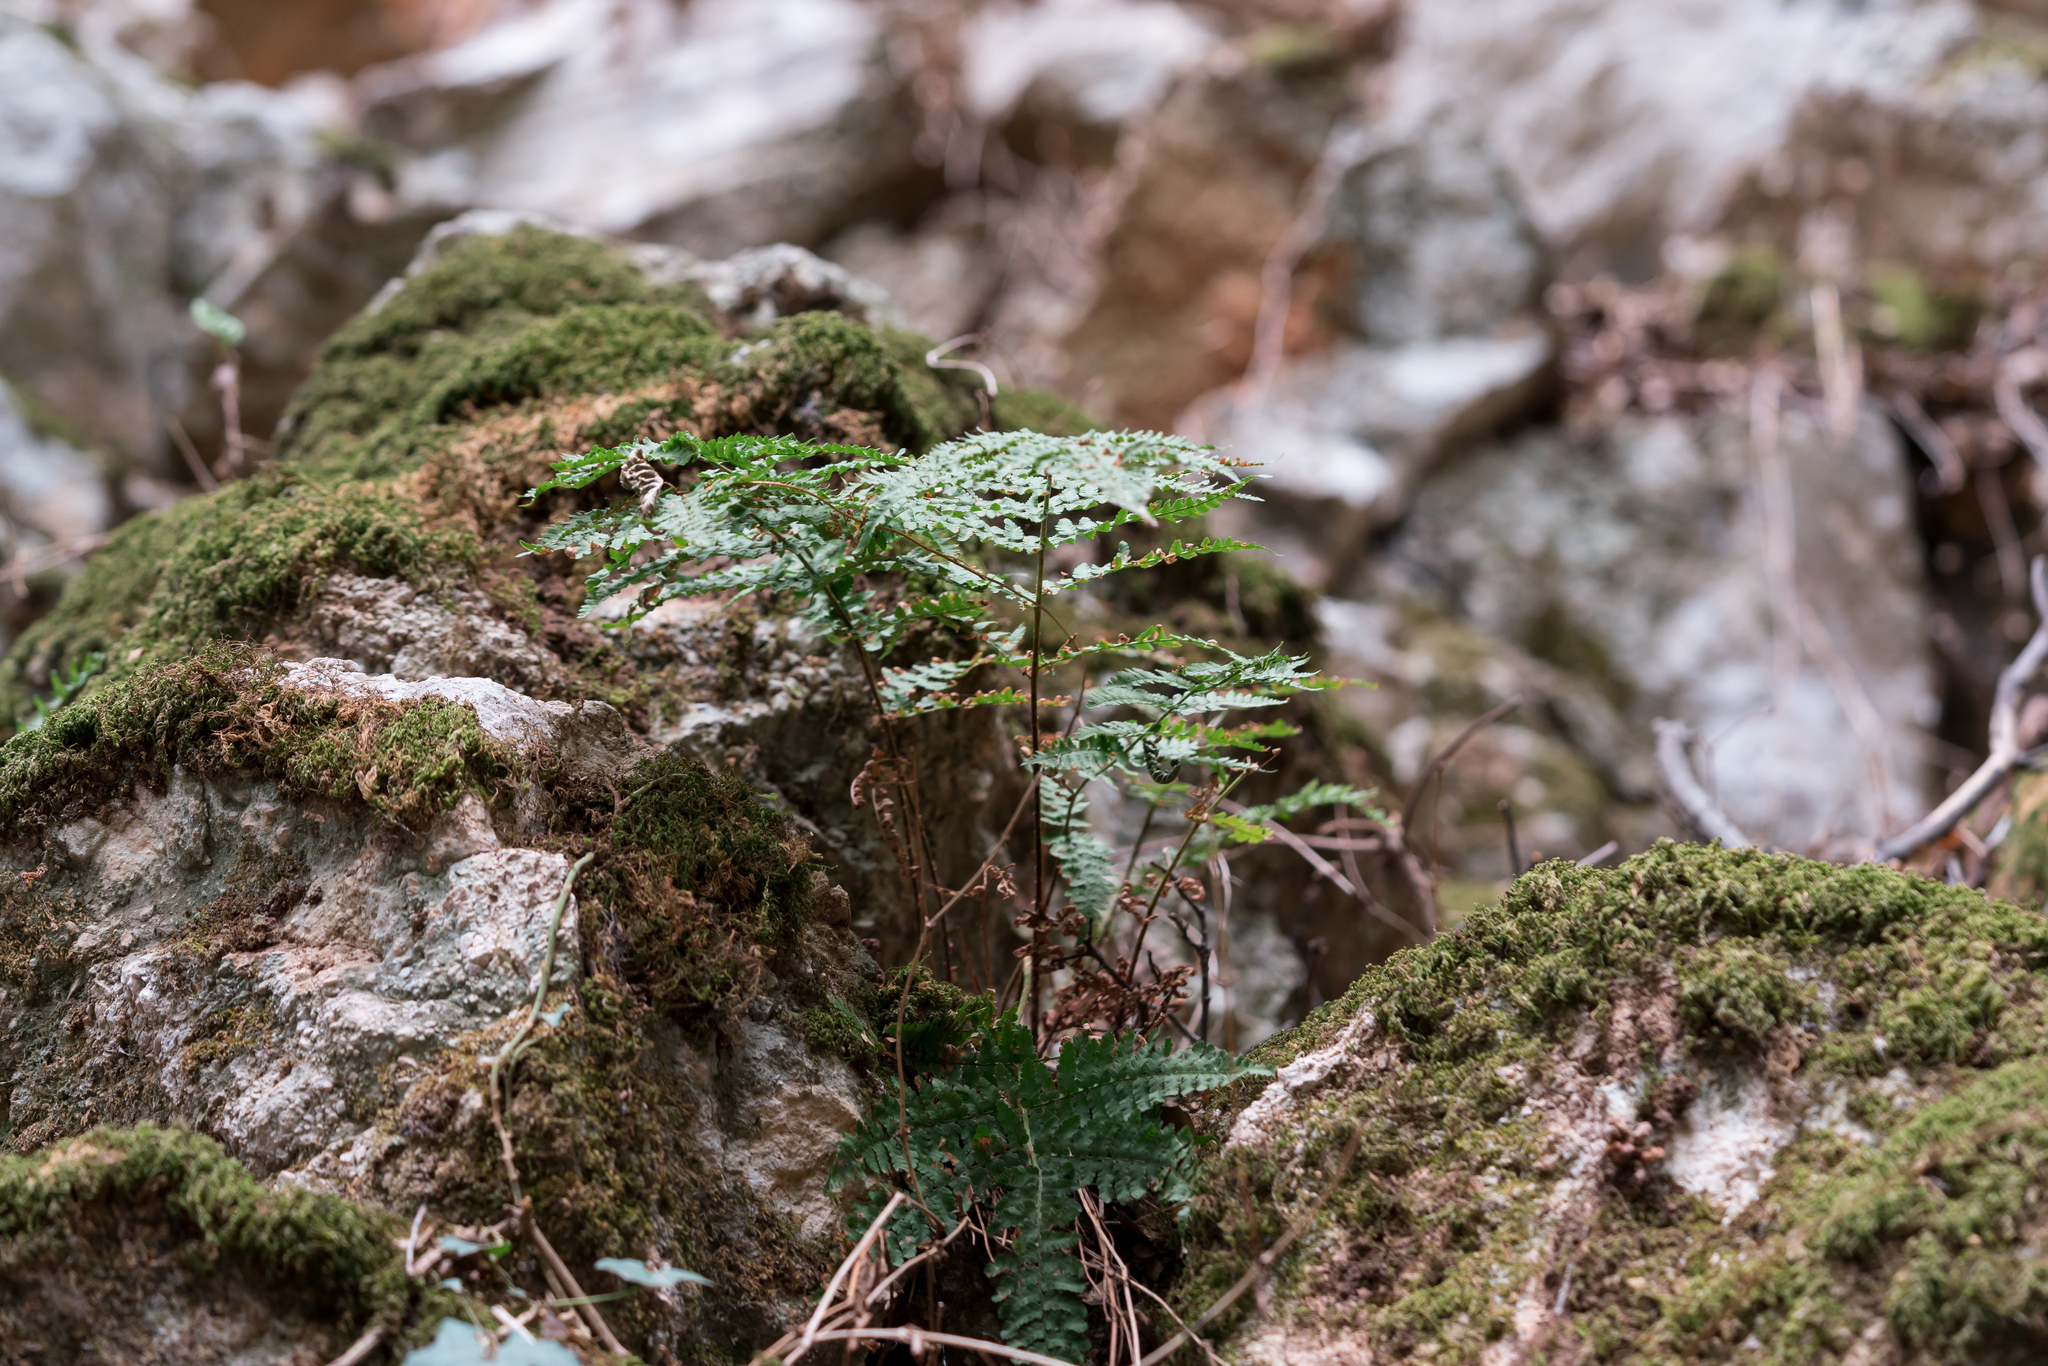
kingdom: Plantae
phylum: Tracheophyta
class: Polypodiopsida
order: Polypodiales
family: Dryopteridaceae
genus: Dryopteris
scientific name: Dryopteris pallida
